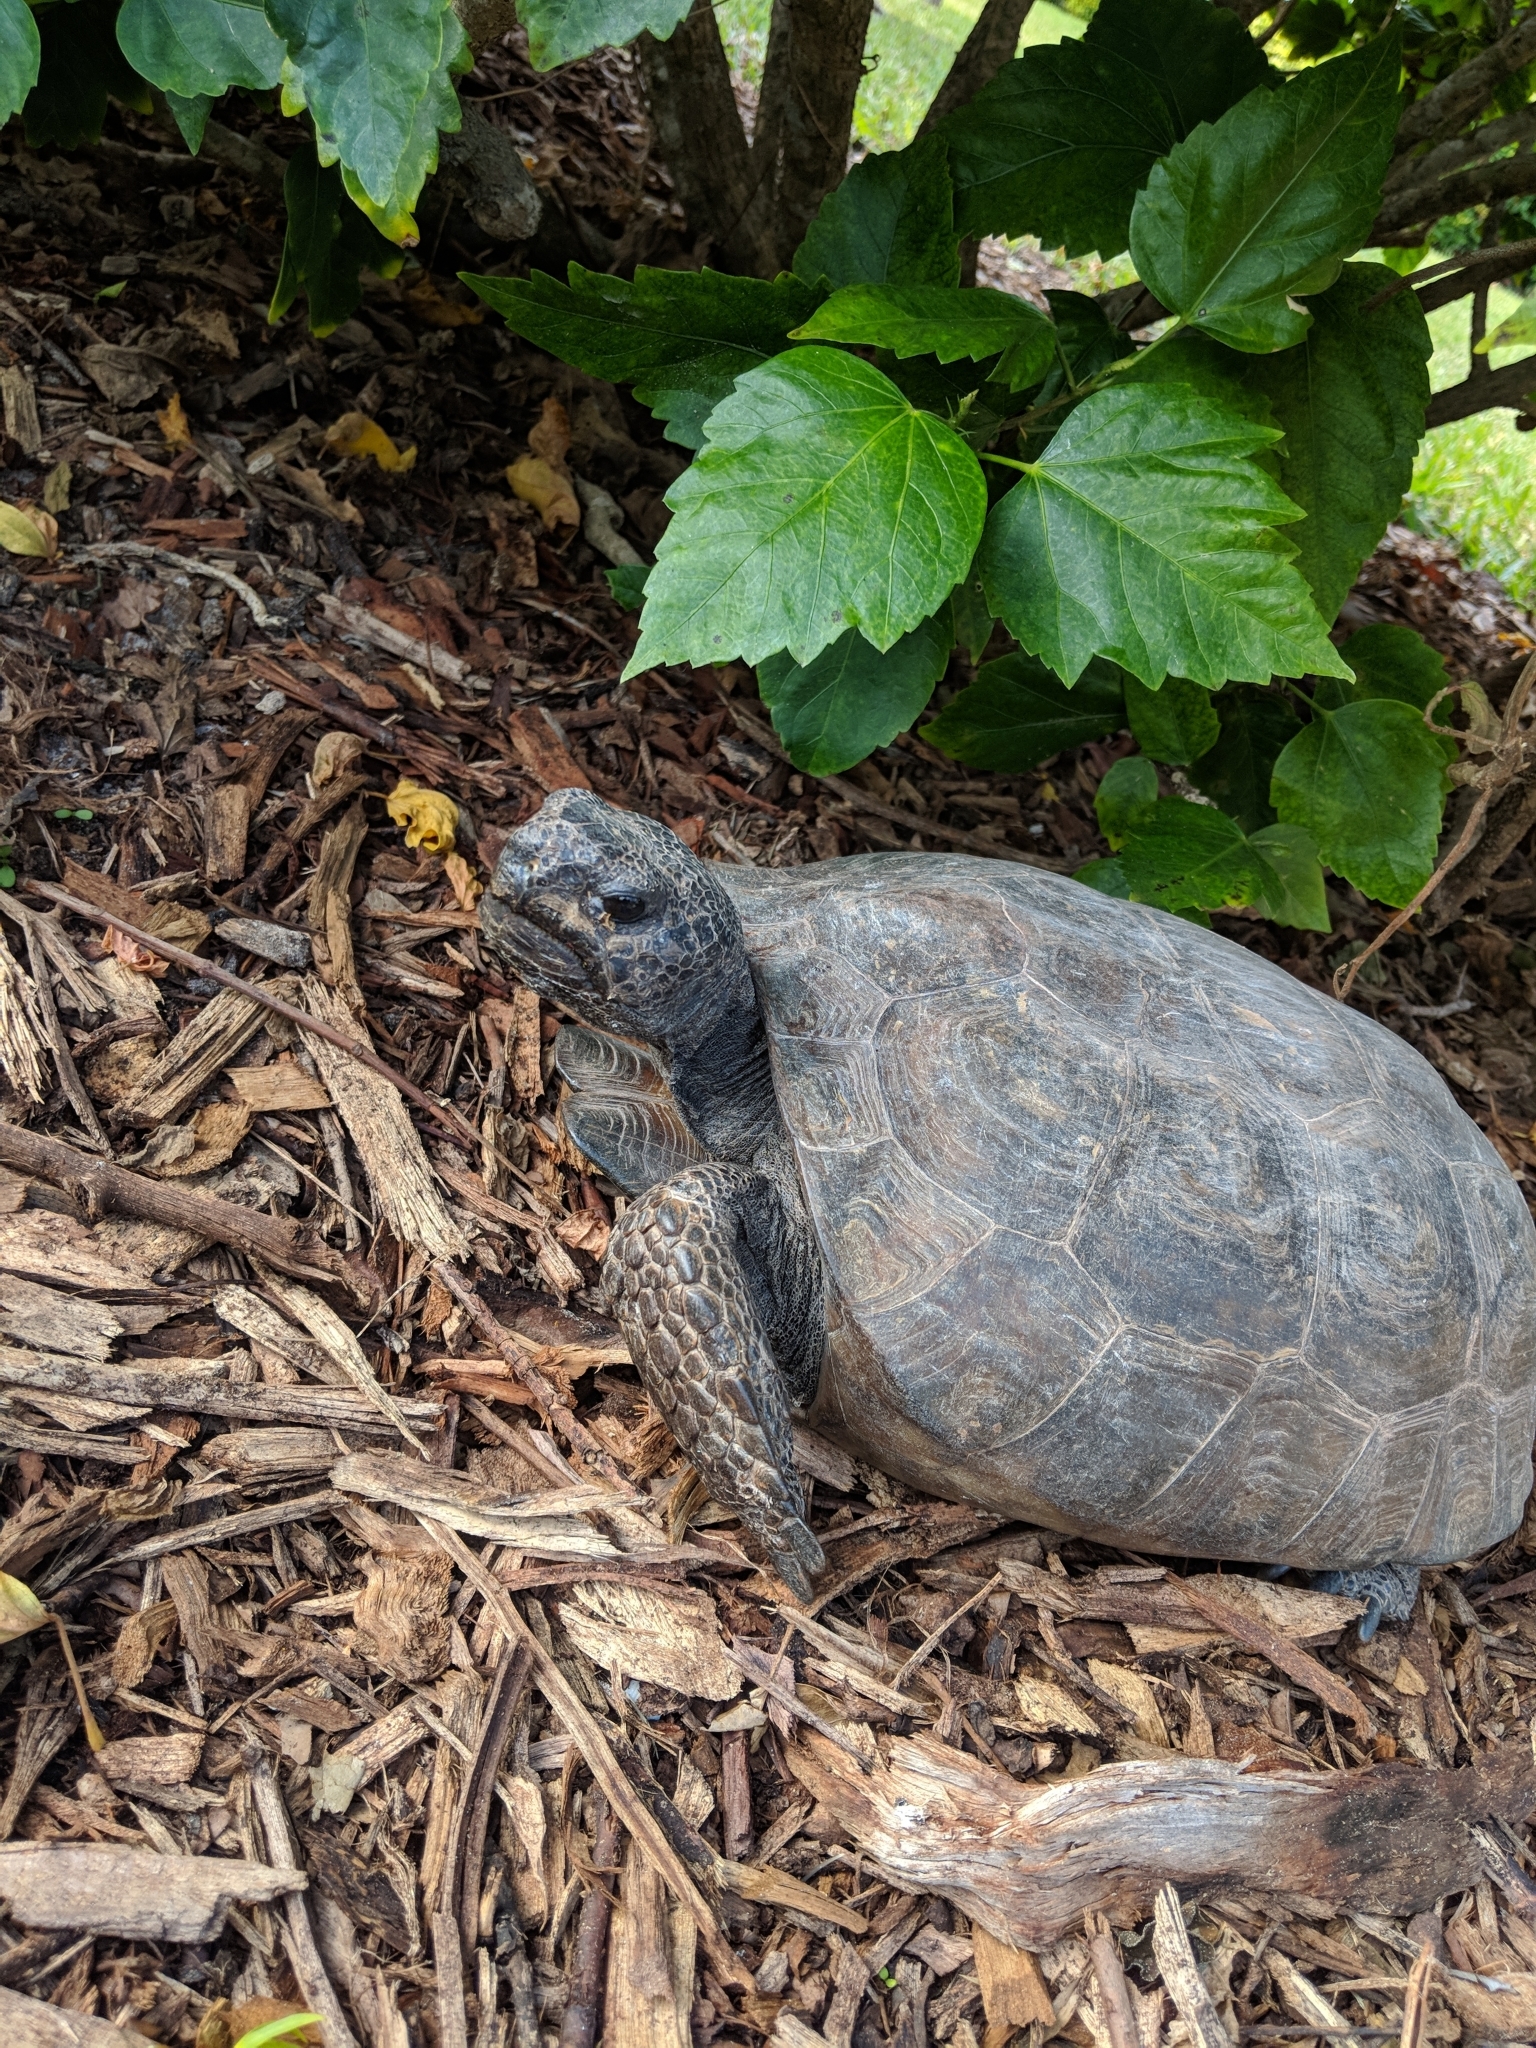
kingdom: Animalia
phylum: Chordata
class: Testudines
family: Testudinidae
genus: Gopherus
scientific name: Gopherus polyphemus
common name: Florida gopher tortoise
